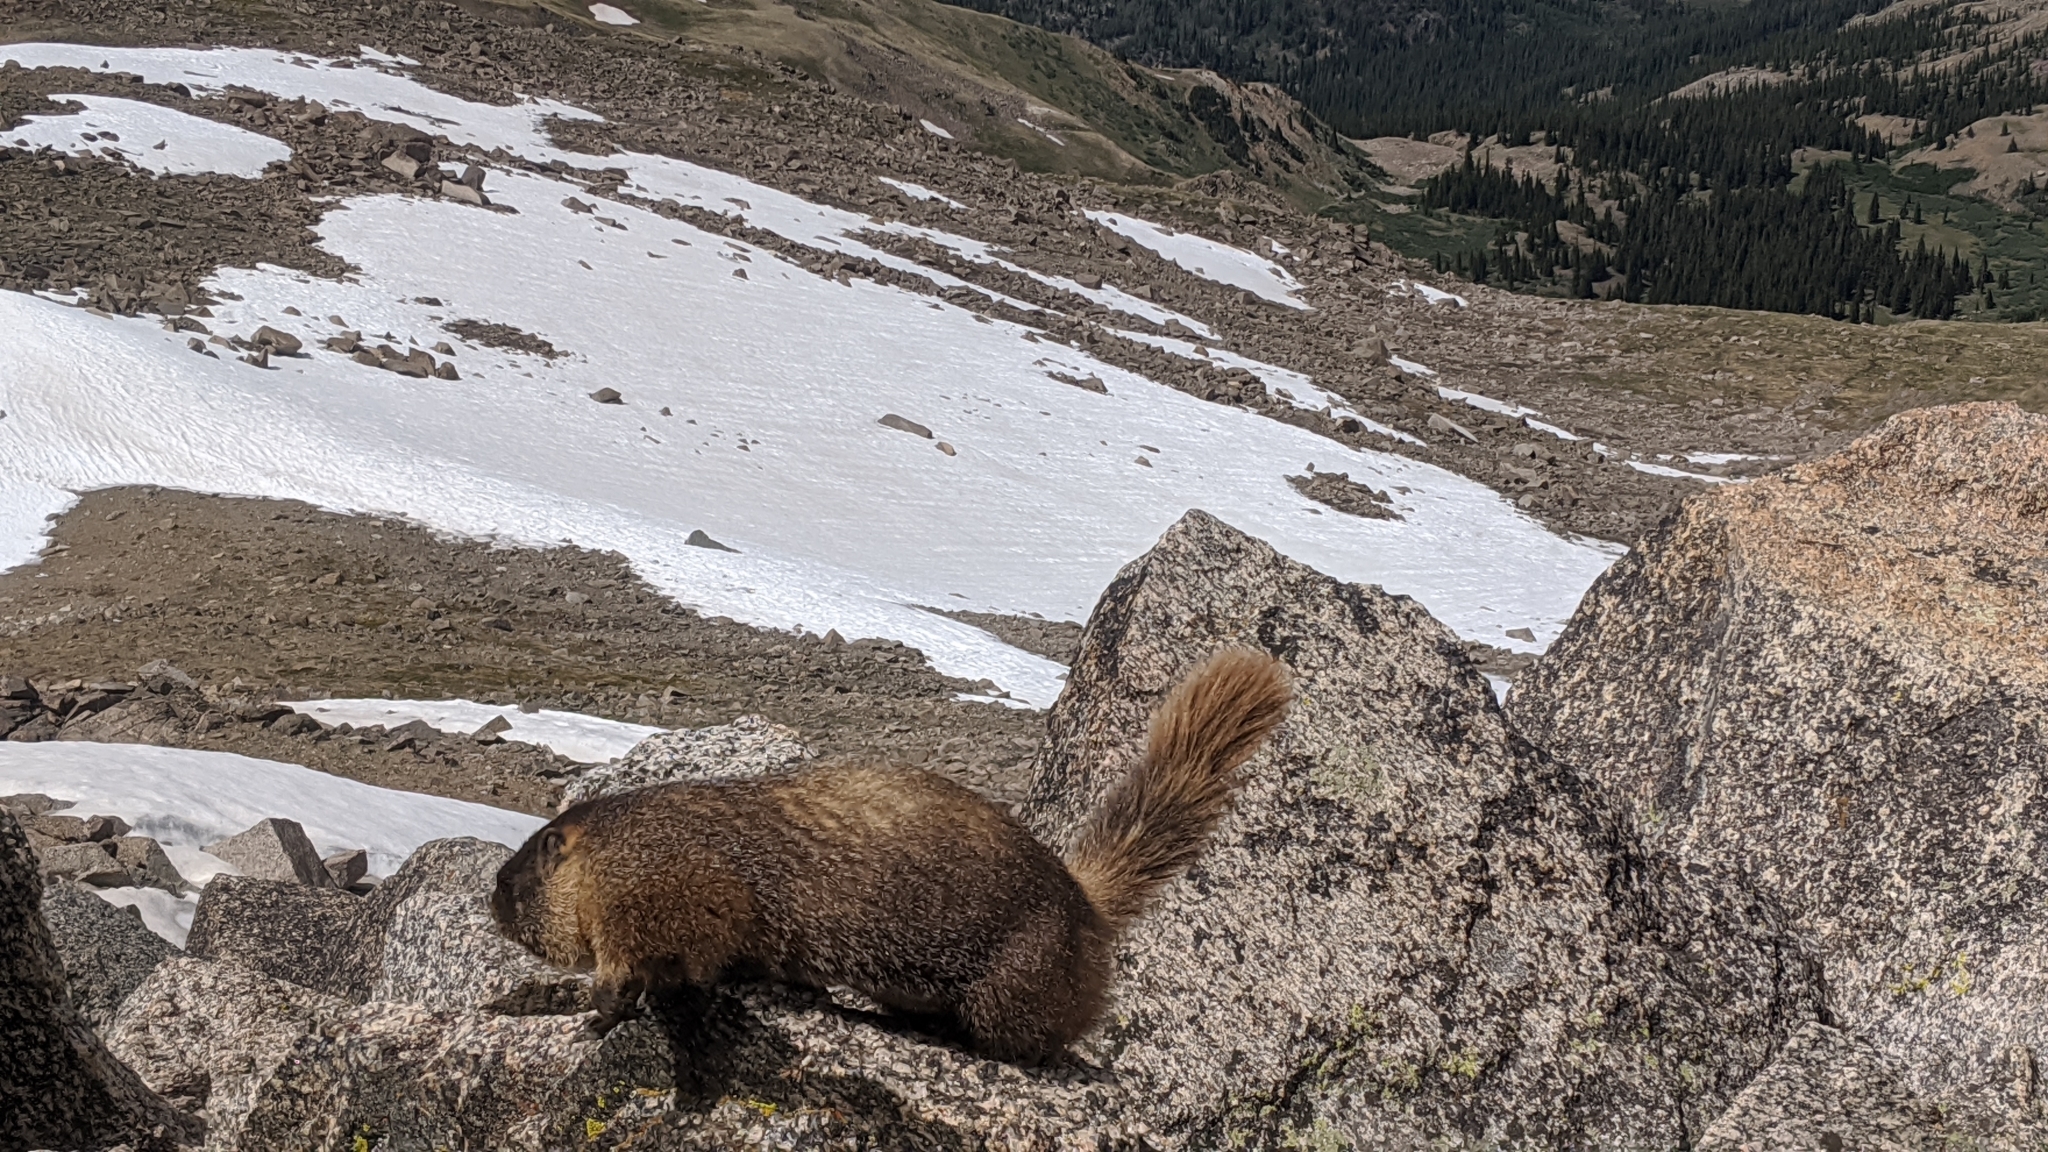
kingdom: Animalia
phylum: Chordata
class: Mammalia
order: Rodentia
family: Sciuridae
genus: Marmota
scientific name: Marmota flaviventris
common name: Yellow-bellied marmot
